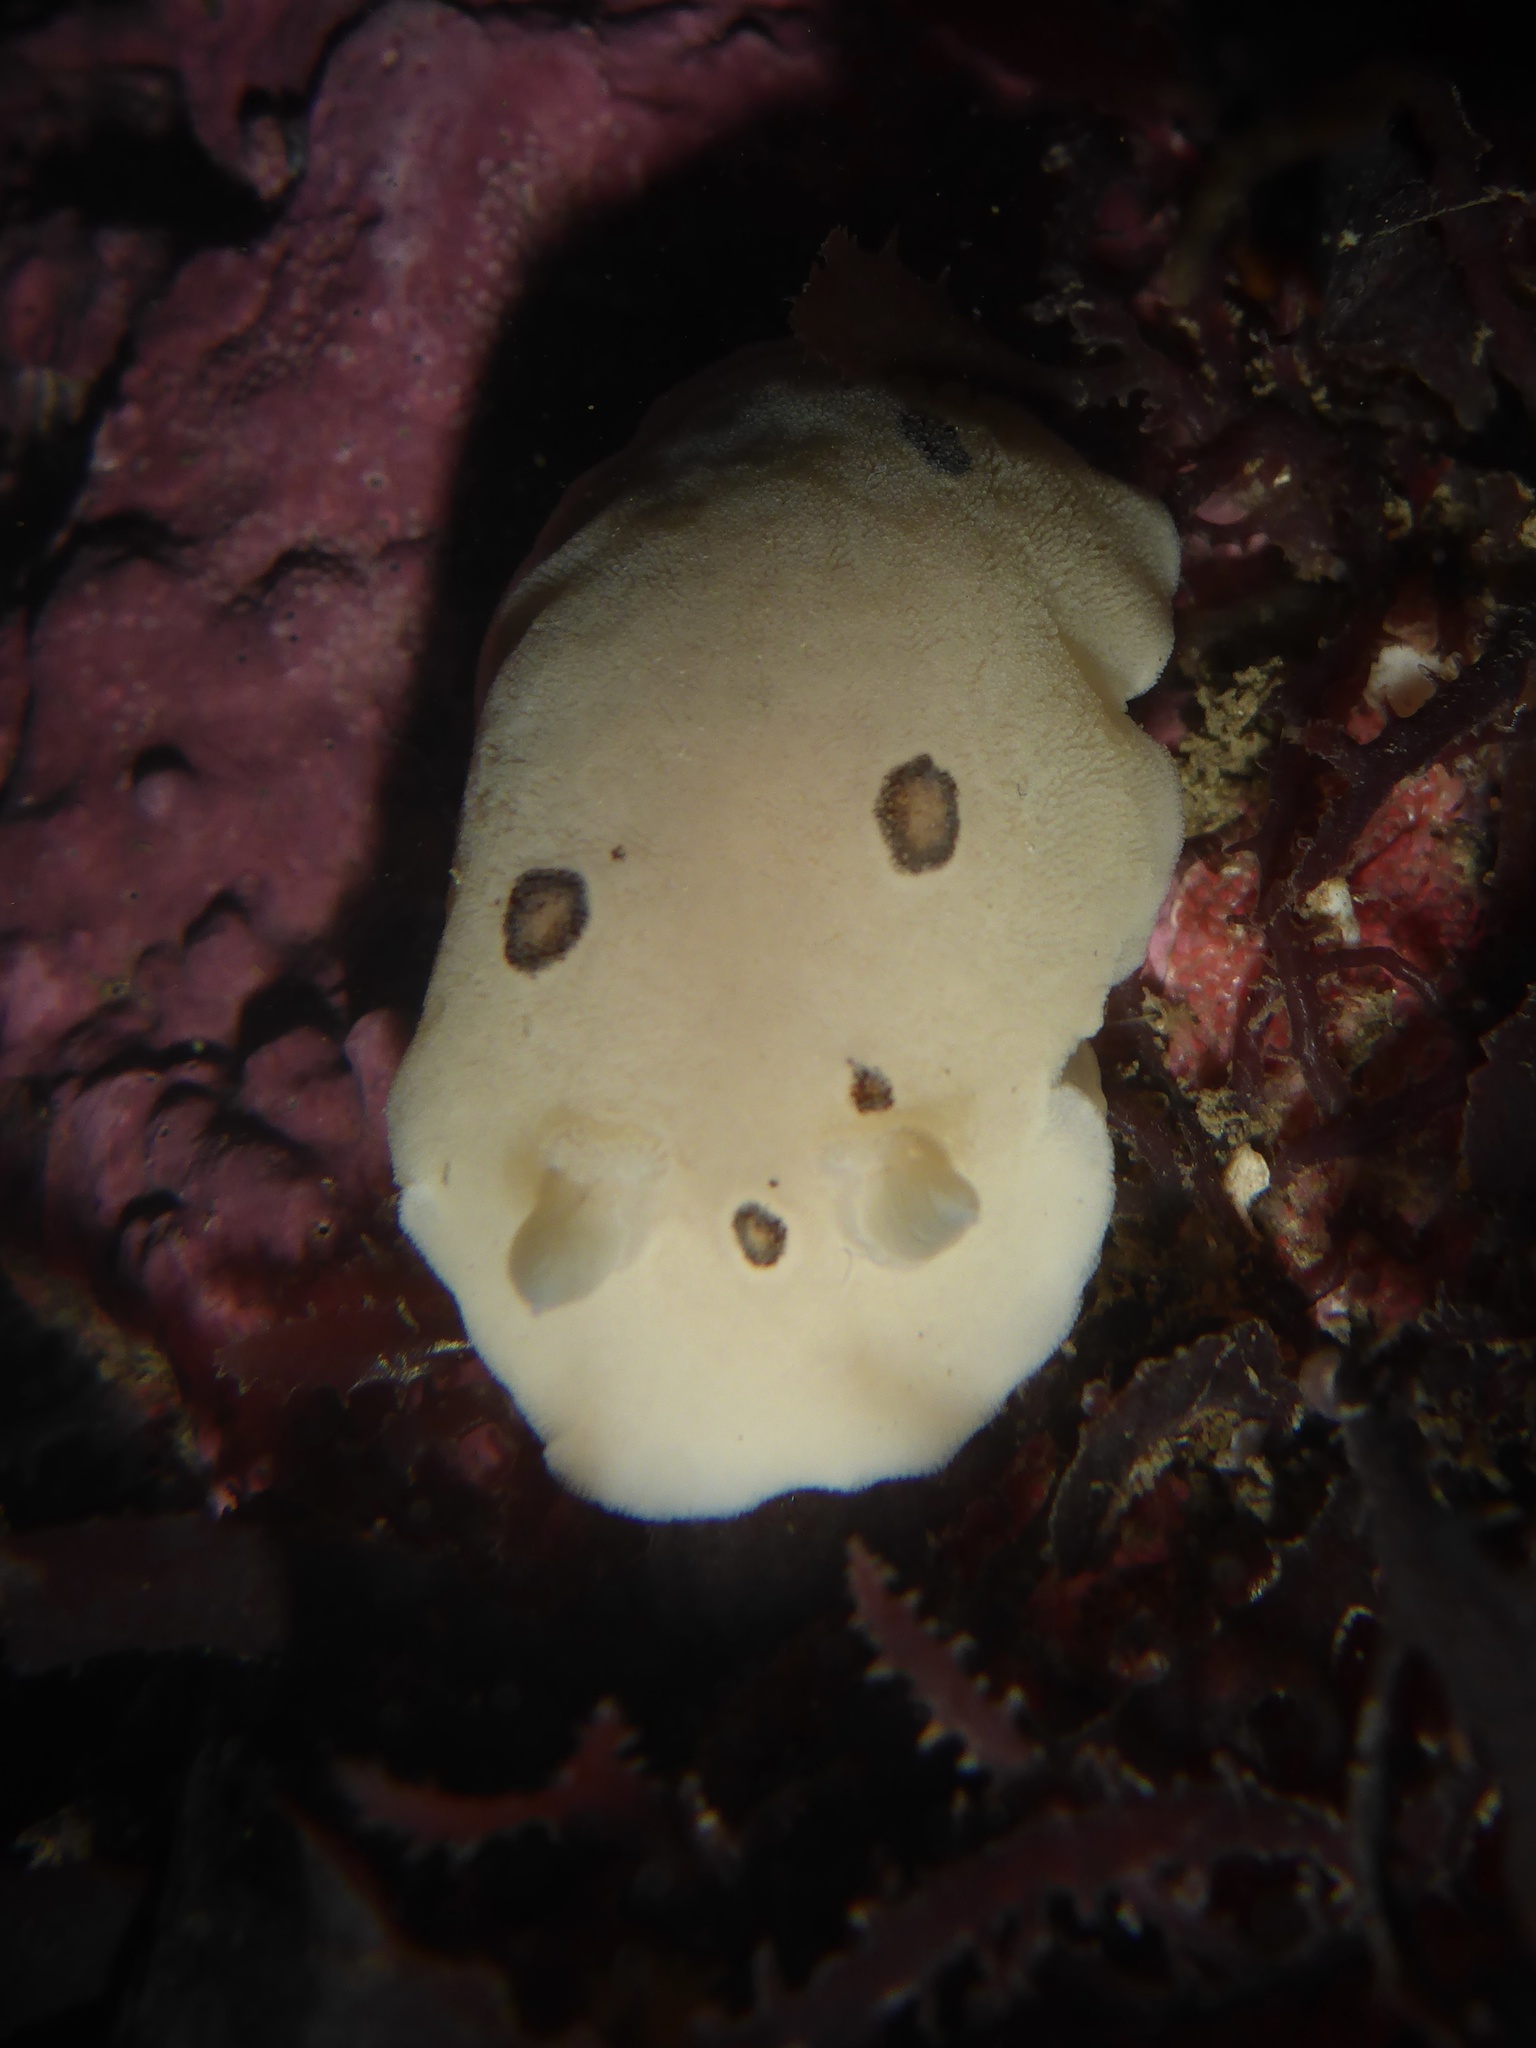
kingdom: Animalia
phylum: Mollusca
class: Gastropoda
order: Nudibranchia
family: Discodorididae
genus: Diaulula
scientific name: Diaulula sandiegensis
